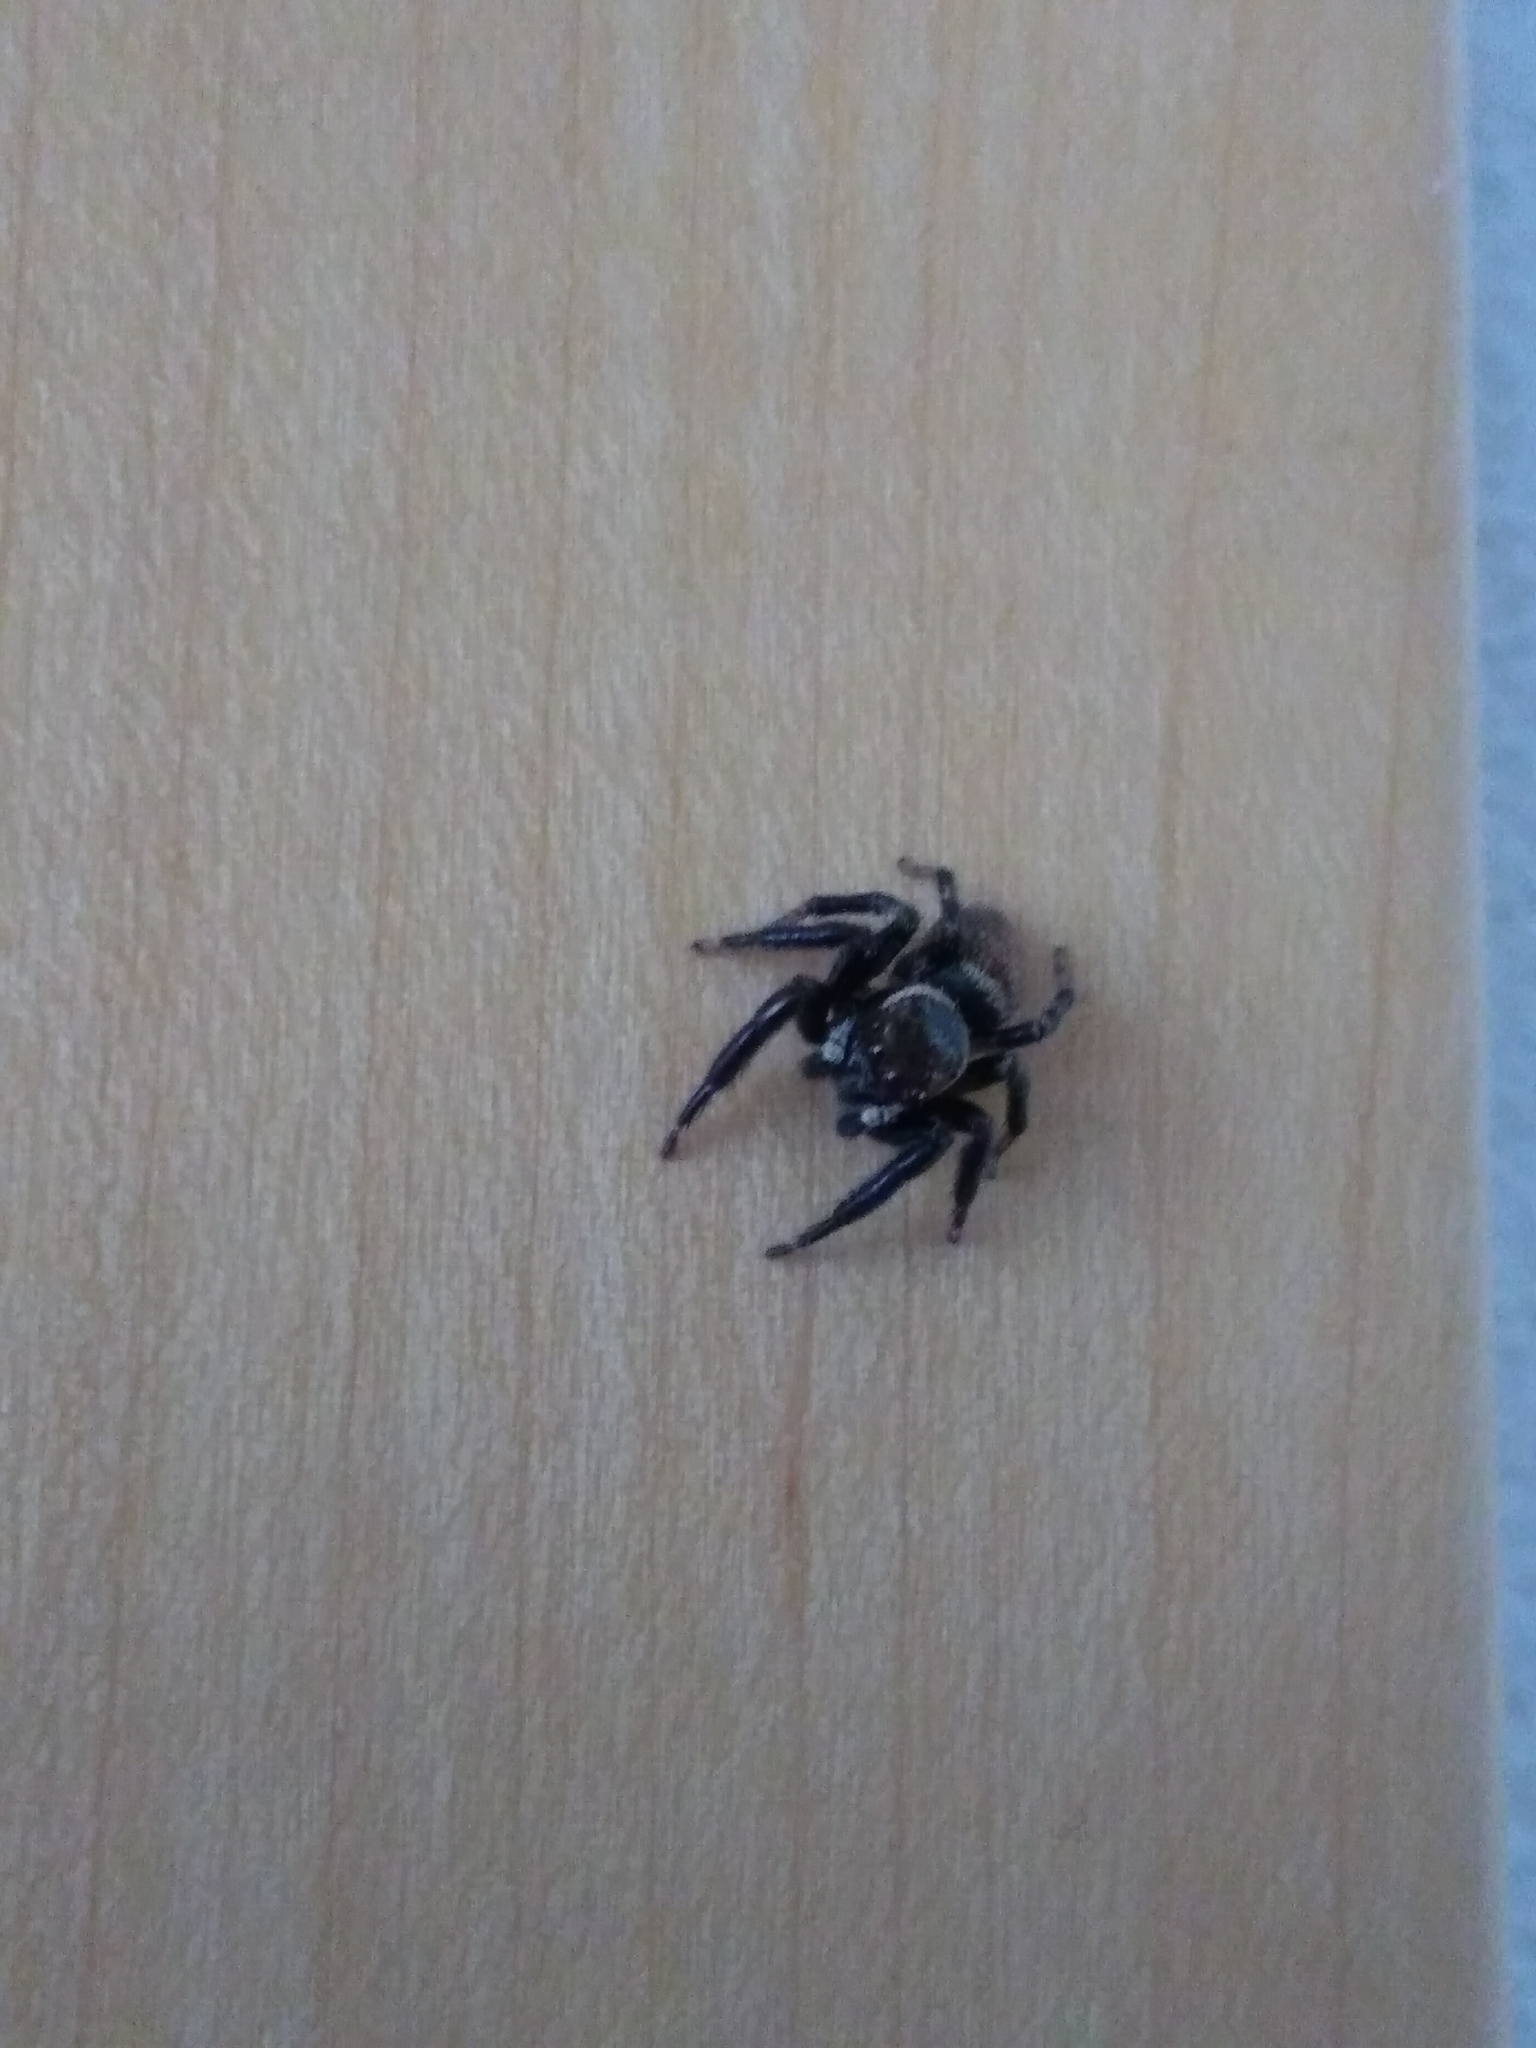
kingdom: Animalia
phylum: Arthropoda
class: Arachnida
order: Araneae
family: Salticidae
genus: Evarcha
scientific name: Evarcha jucunda
